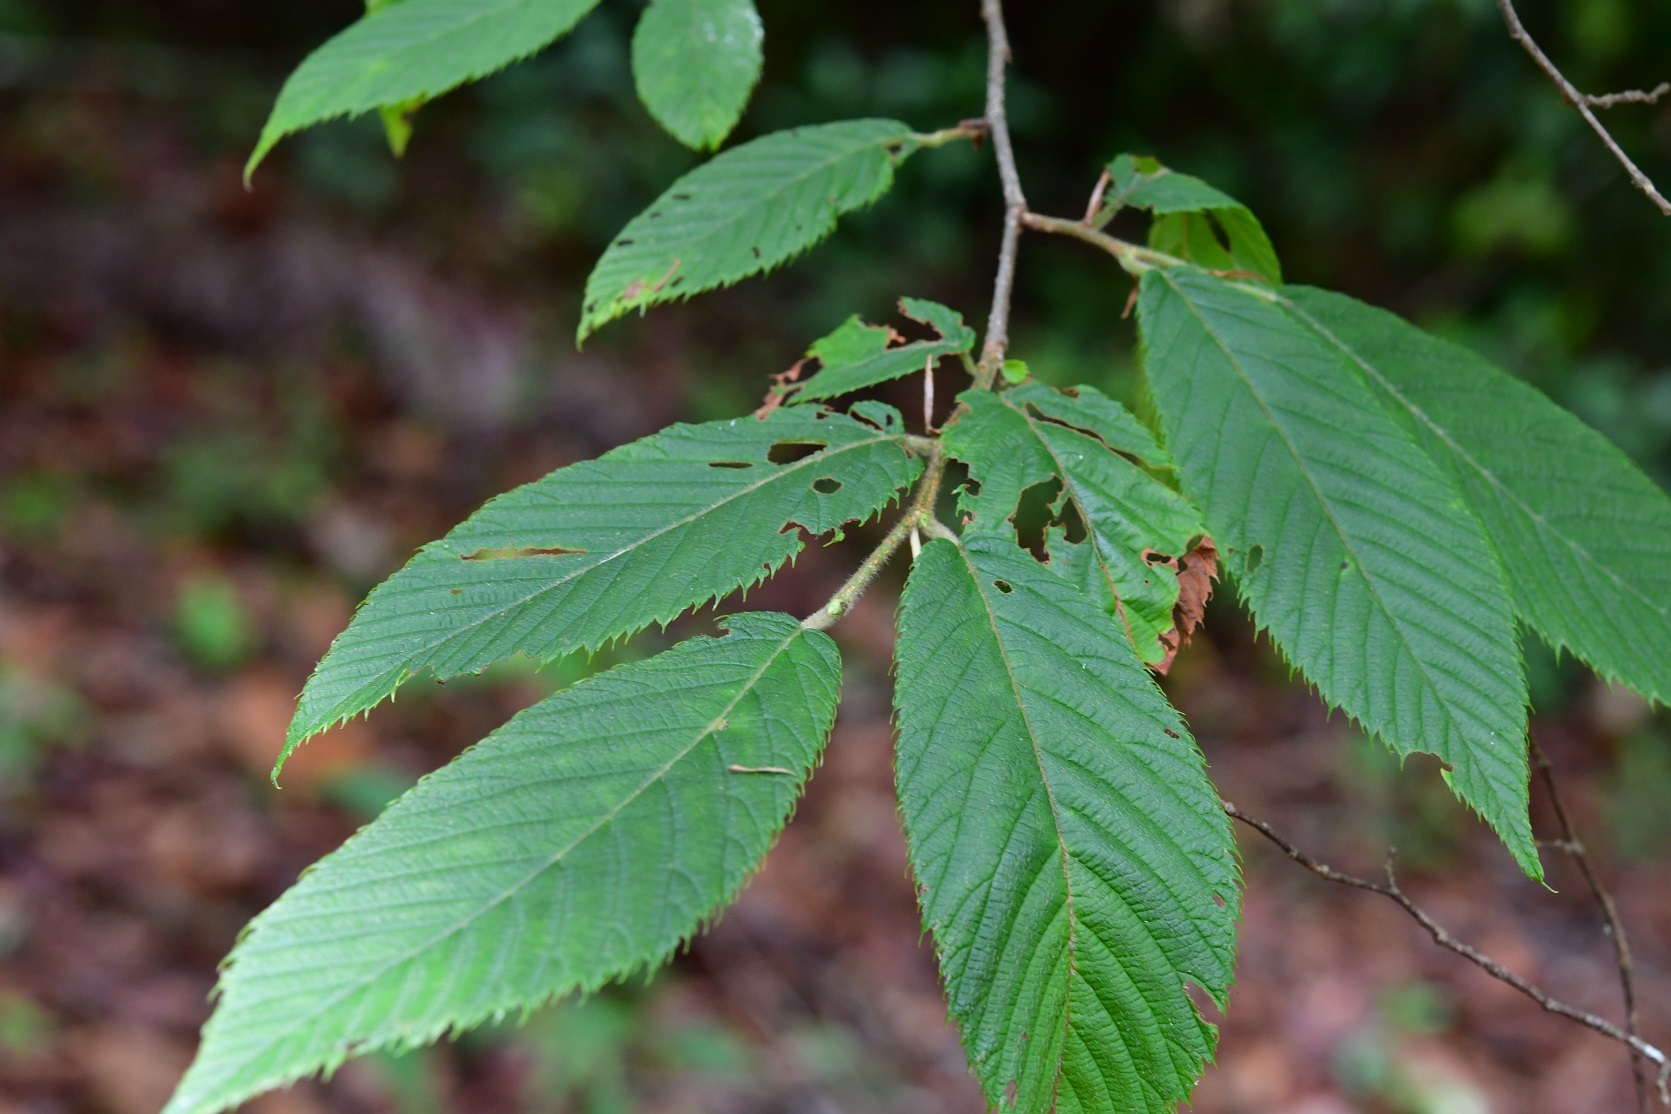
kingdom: Plantae
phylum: Tracheophyta
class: Magnoliopsida
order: Fagales
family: Betulaceae
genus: Ostrya
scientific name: Ostrya virginiana
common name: Ironwood
